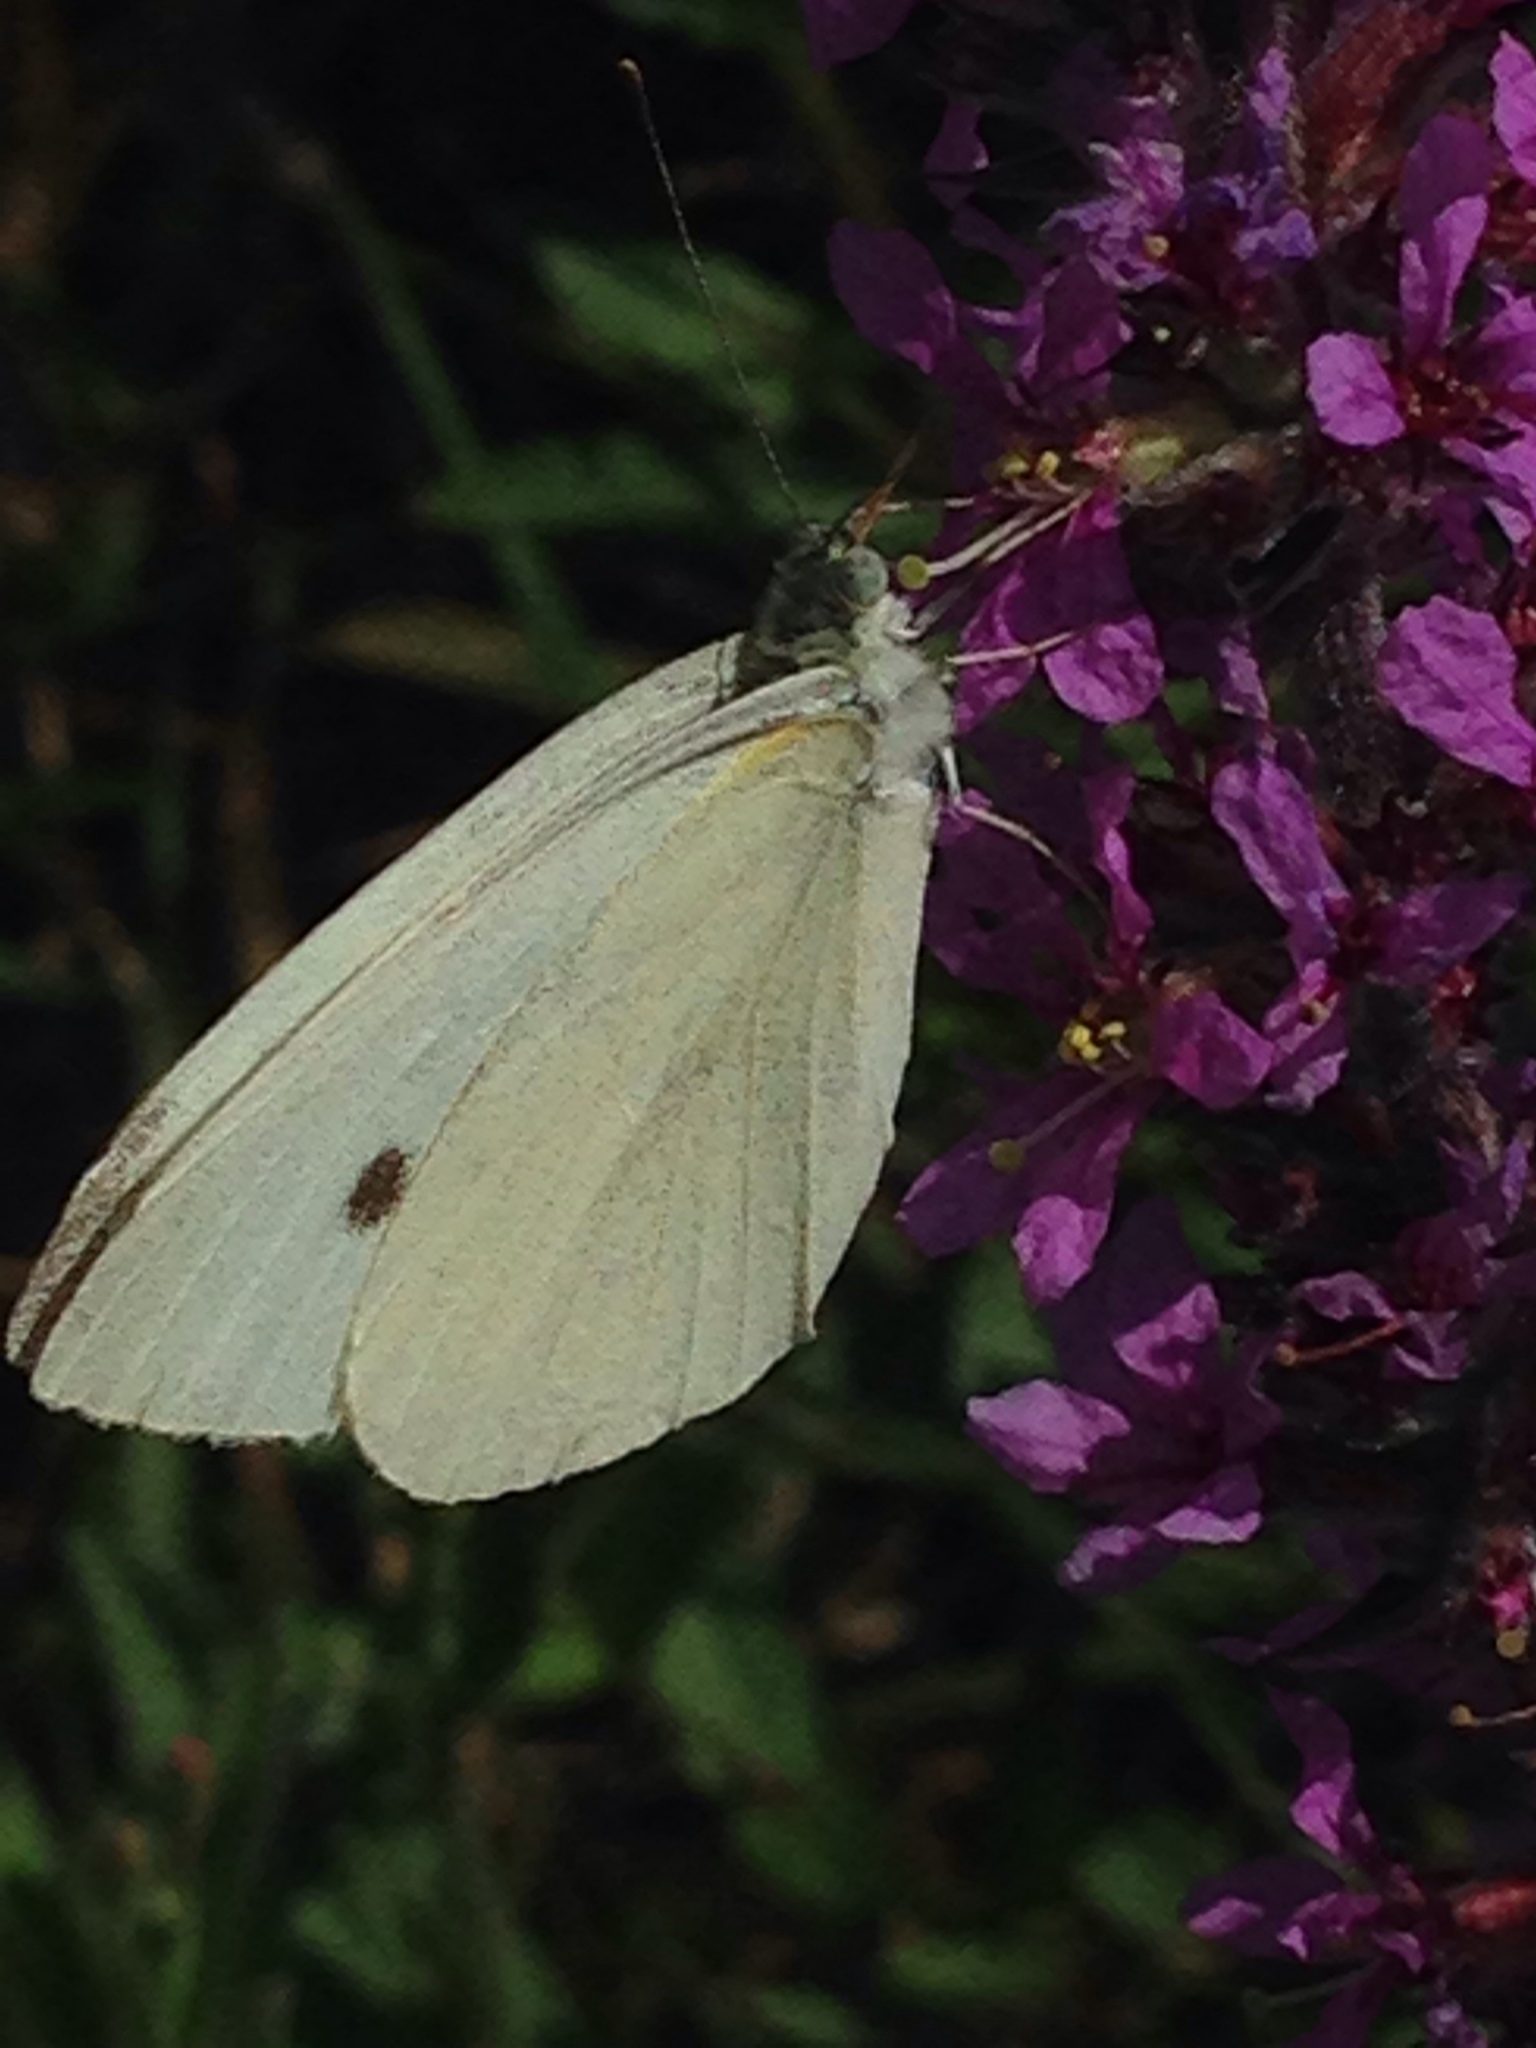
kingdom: Animalia
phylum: Arthropoda
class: Insecta
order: Lepidoptera
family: Pieridae
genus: Pieris
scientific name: Pieris rapae
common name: Small white
